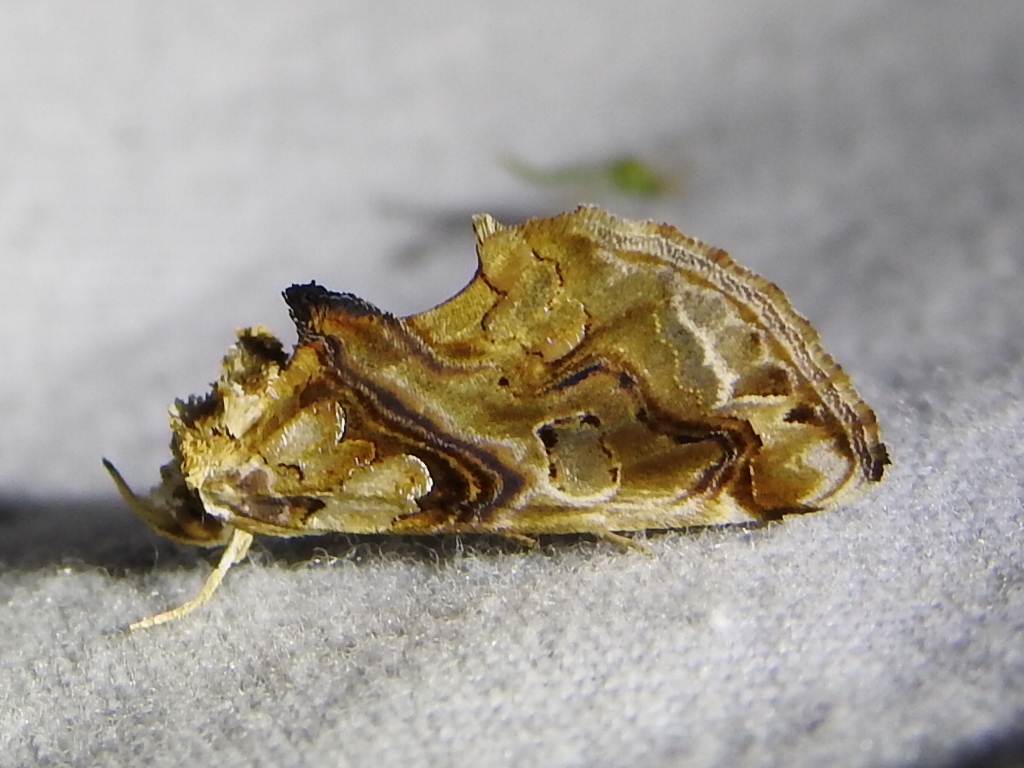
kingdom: Animalia
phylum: Arthropoda
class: Insecta
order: Lepidoptera
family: Erebidae
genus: Plusiodonta
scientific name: Plusiodonta compressipalpis
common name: Moonseed moth
